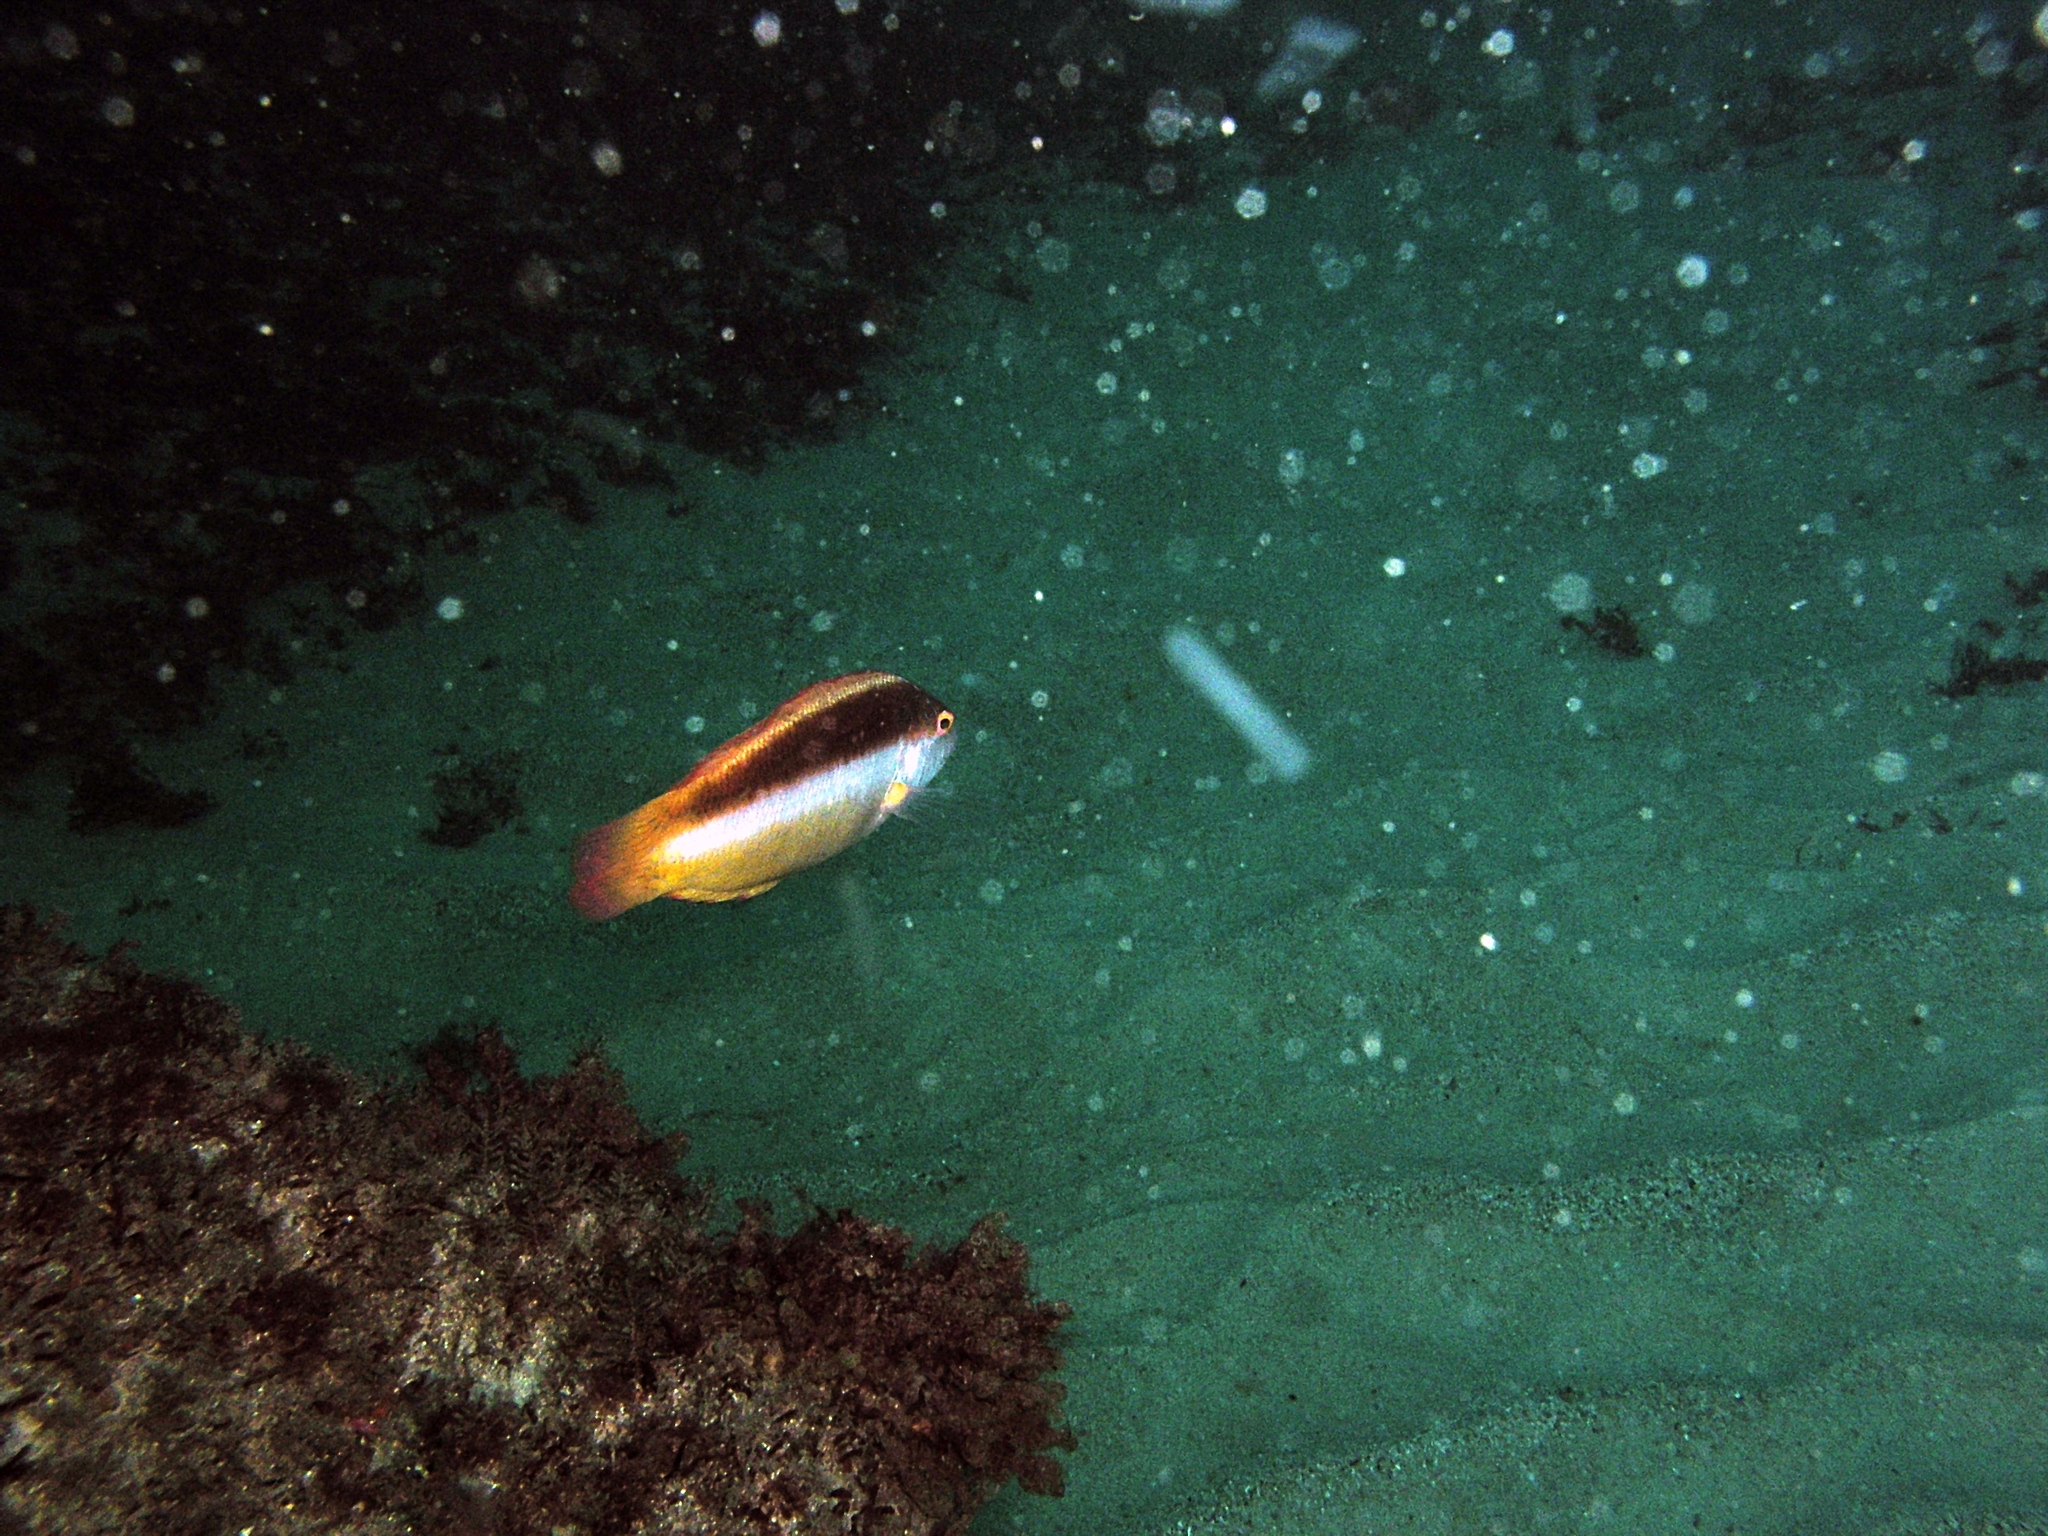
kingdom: Animalia
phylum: Chordata
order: Perciformes
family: Labridae
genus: Ophthalmolepis
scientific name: Ophthalmolepis lineolata
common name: Maori wrasse
